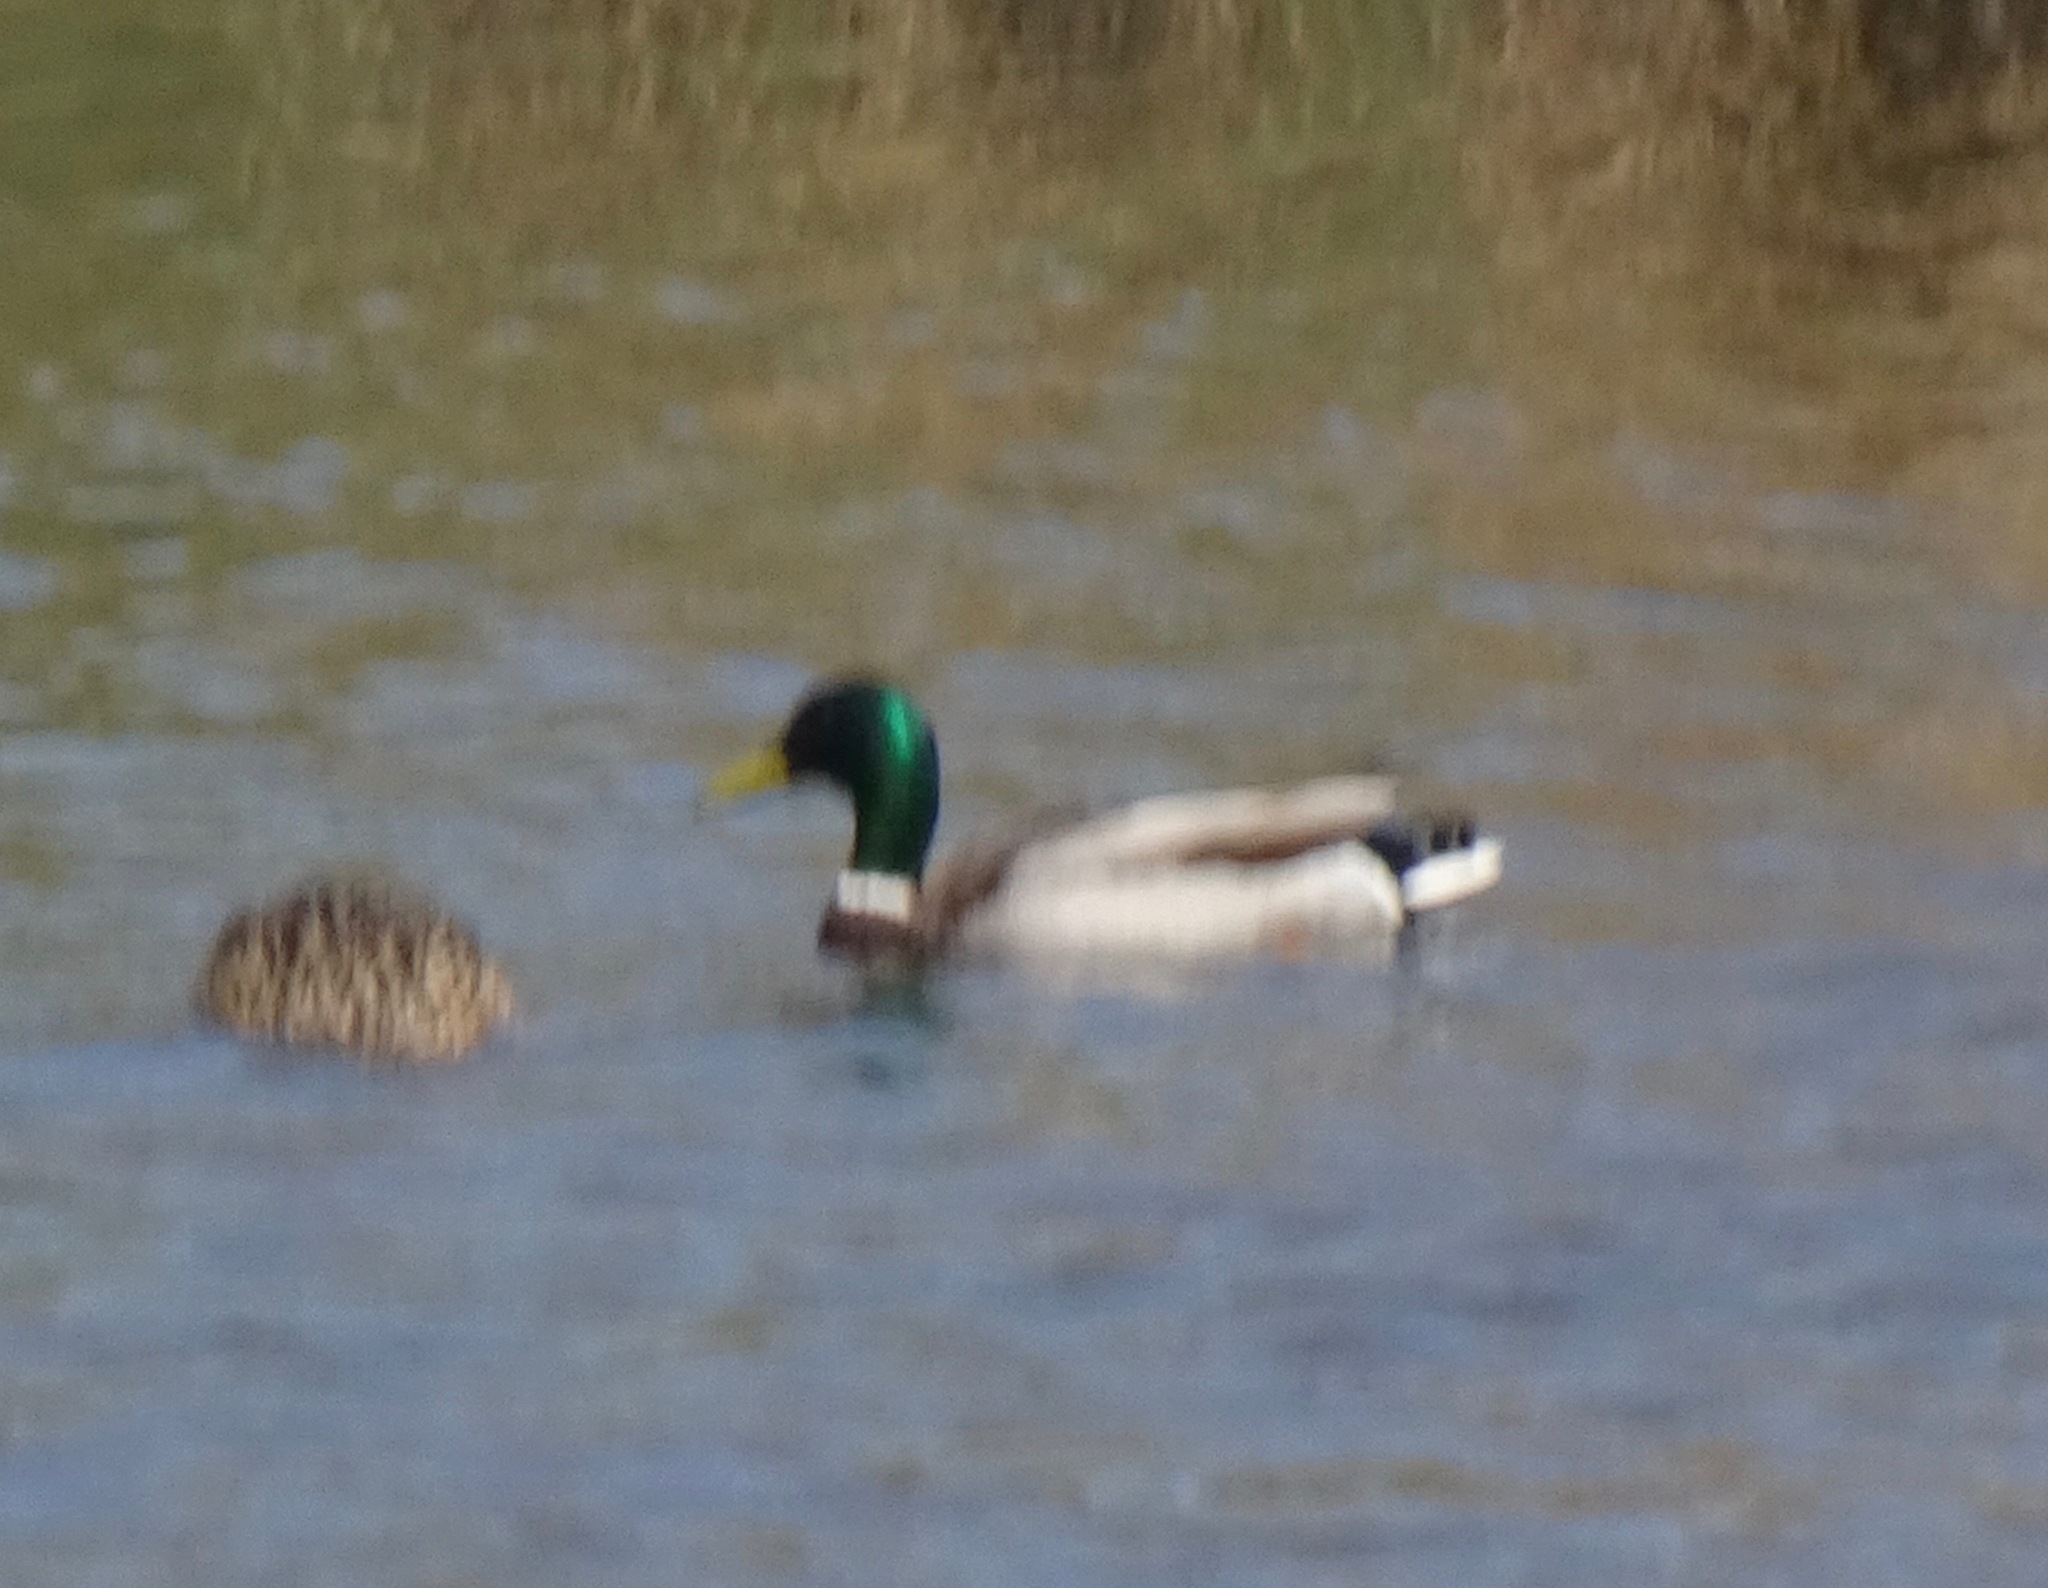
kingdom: Animalia
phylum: Chordata
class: Aves
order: Anseriformes
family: Anatidae
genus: Anas
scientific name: Anas platyrhynchos
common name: Mallard
